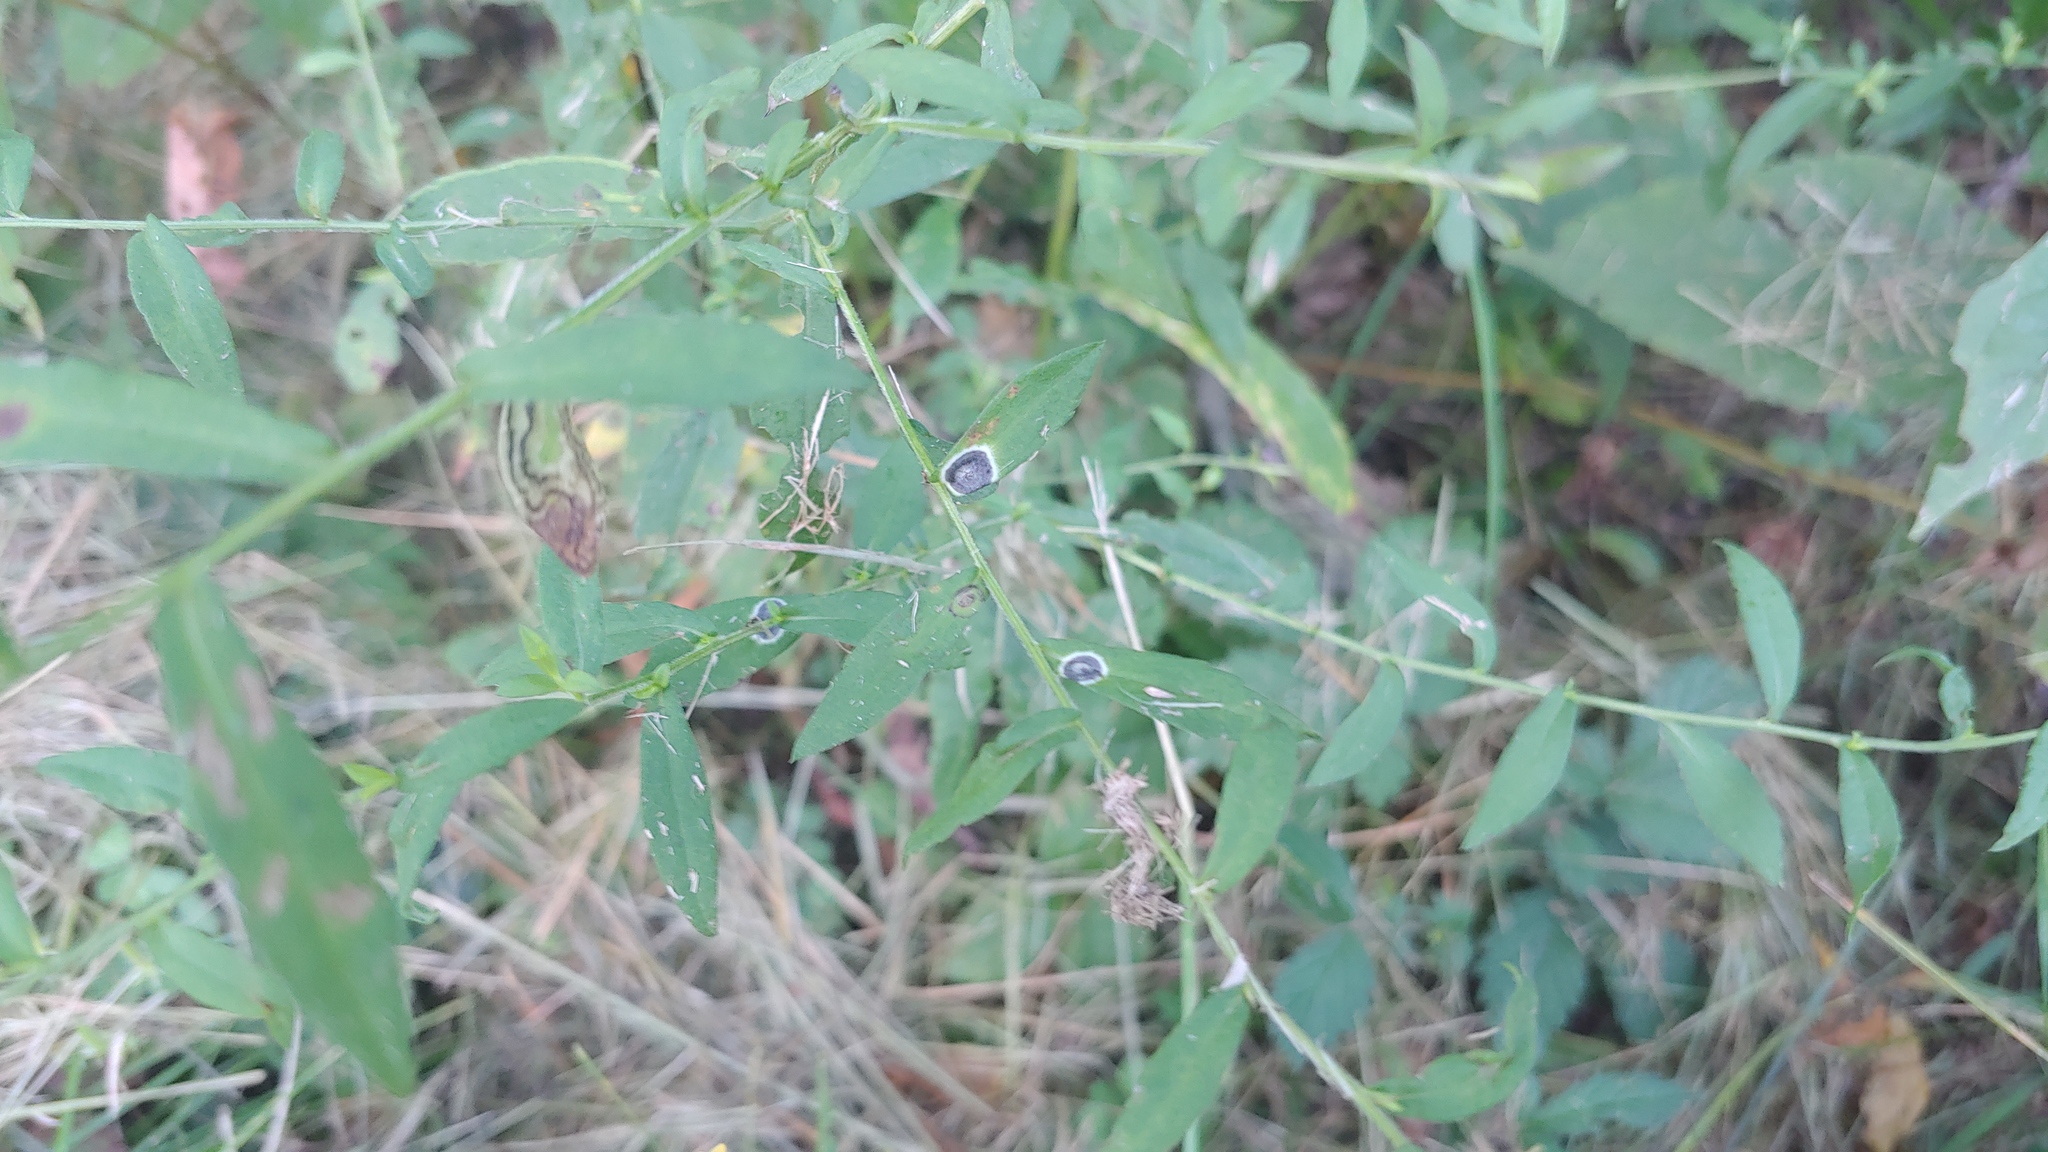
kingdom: Animalia
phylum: Arthropoda
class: Insecta
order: Diptera
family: Cecidomyiidae
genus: Asteromyia
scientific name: Asteromyia laeviana
